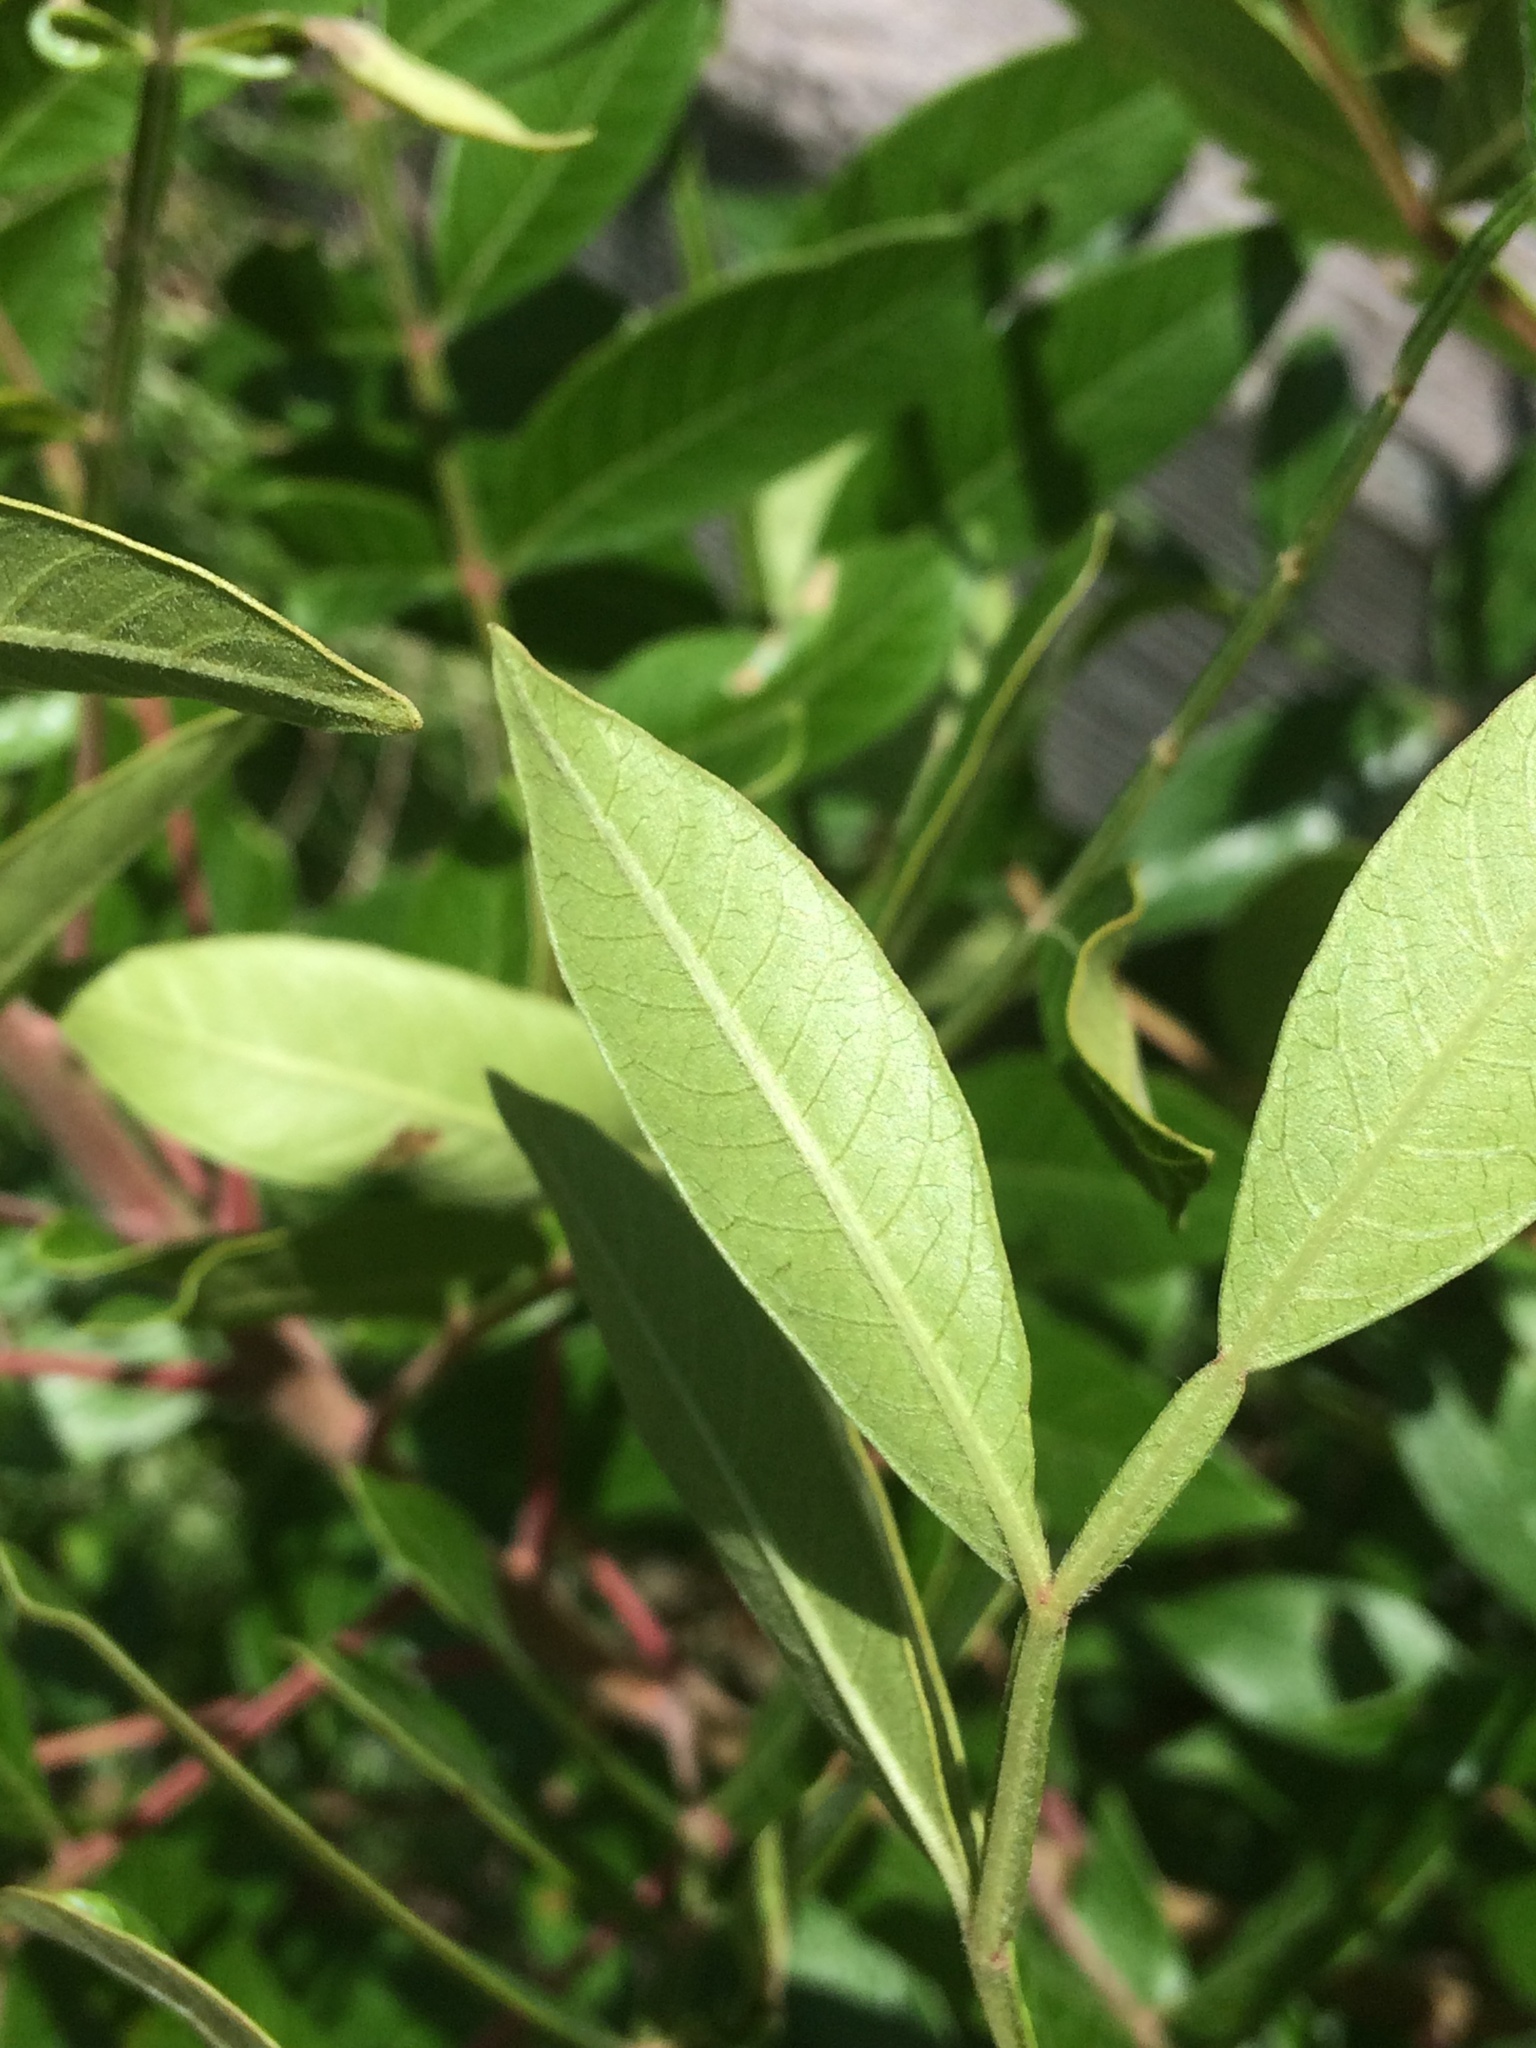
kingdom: Plantae
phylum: Tracheophyta
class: Magnoliopsida
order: Sapindales
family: Anacardiaceae
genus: Rhus
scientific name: Rhus copallina
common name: Shining sumac
